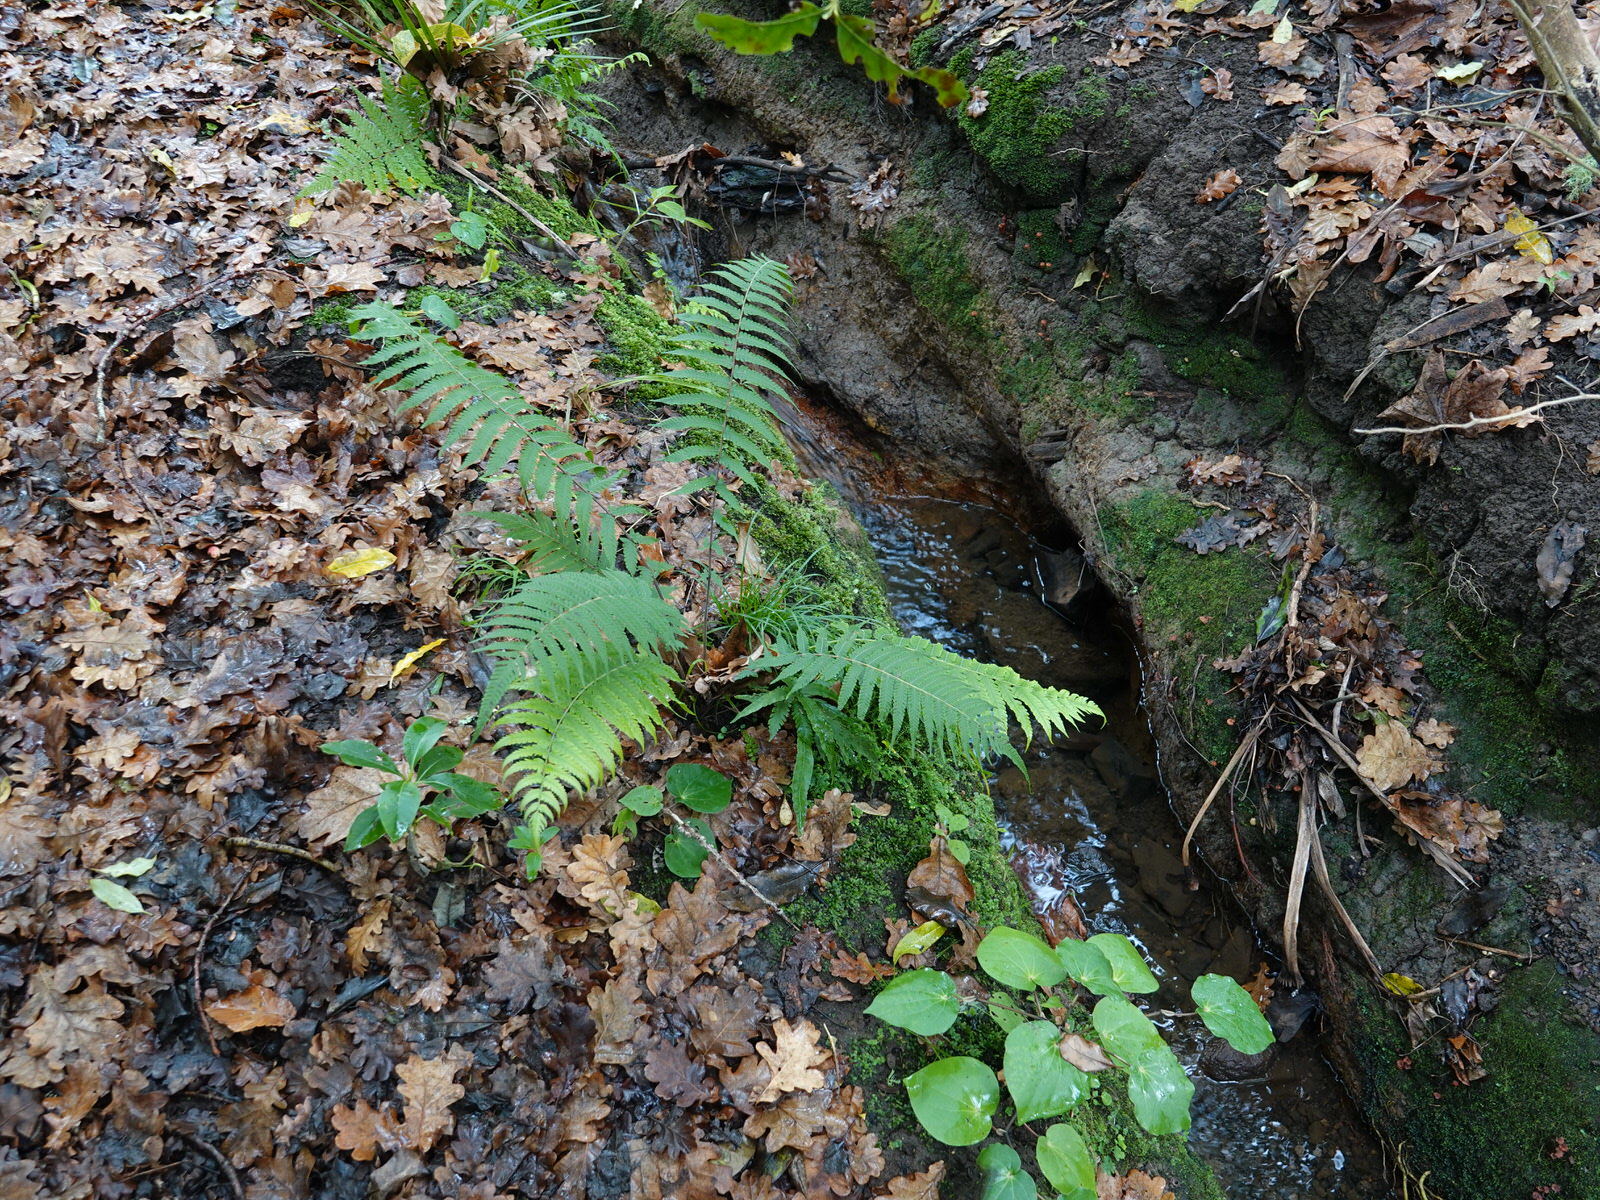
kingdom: Plantae
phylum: Tracheophyta
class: Polypodiopsida
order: Polypodiales
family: Thelypteridaceae
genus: Christella
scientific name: Christella dentata
